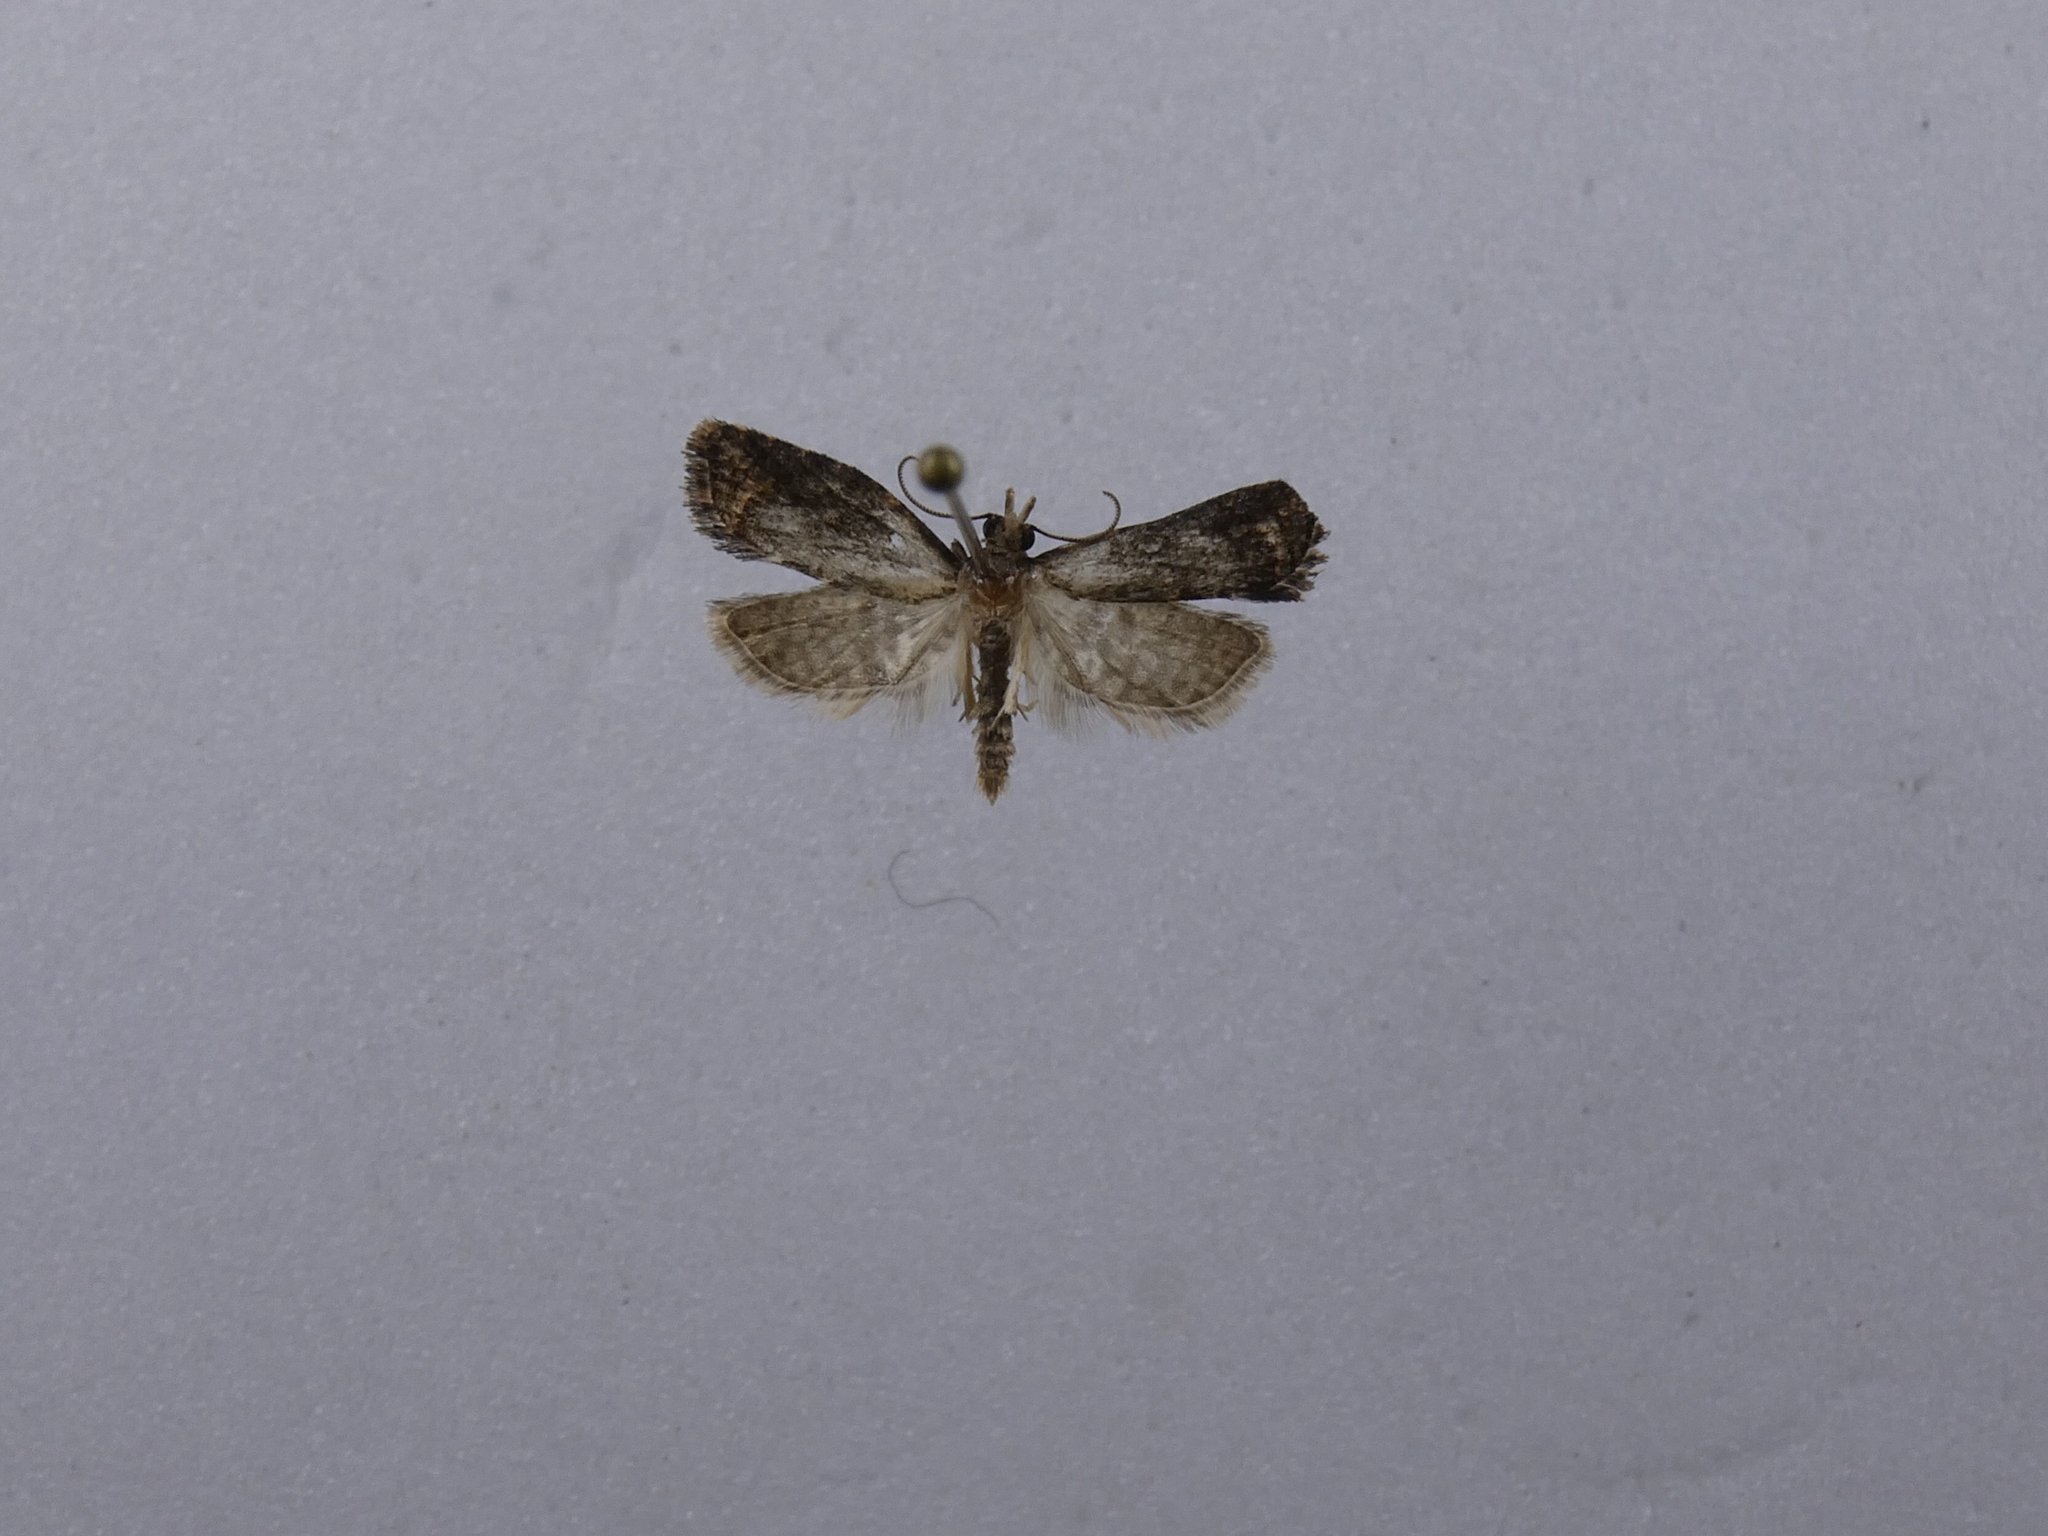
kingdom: Animalia
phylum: Arthropoda
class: Insecta
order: Lepidoptera
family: Tortricidae
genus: Capua
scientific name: Capua intractana
